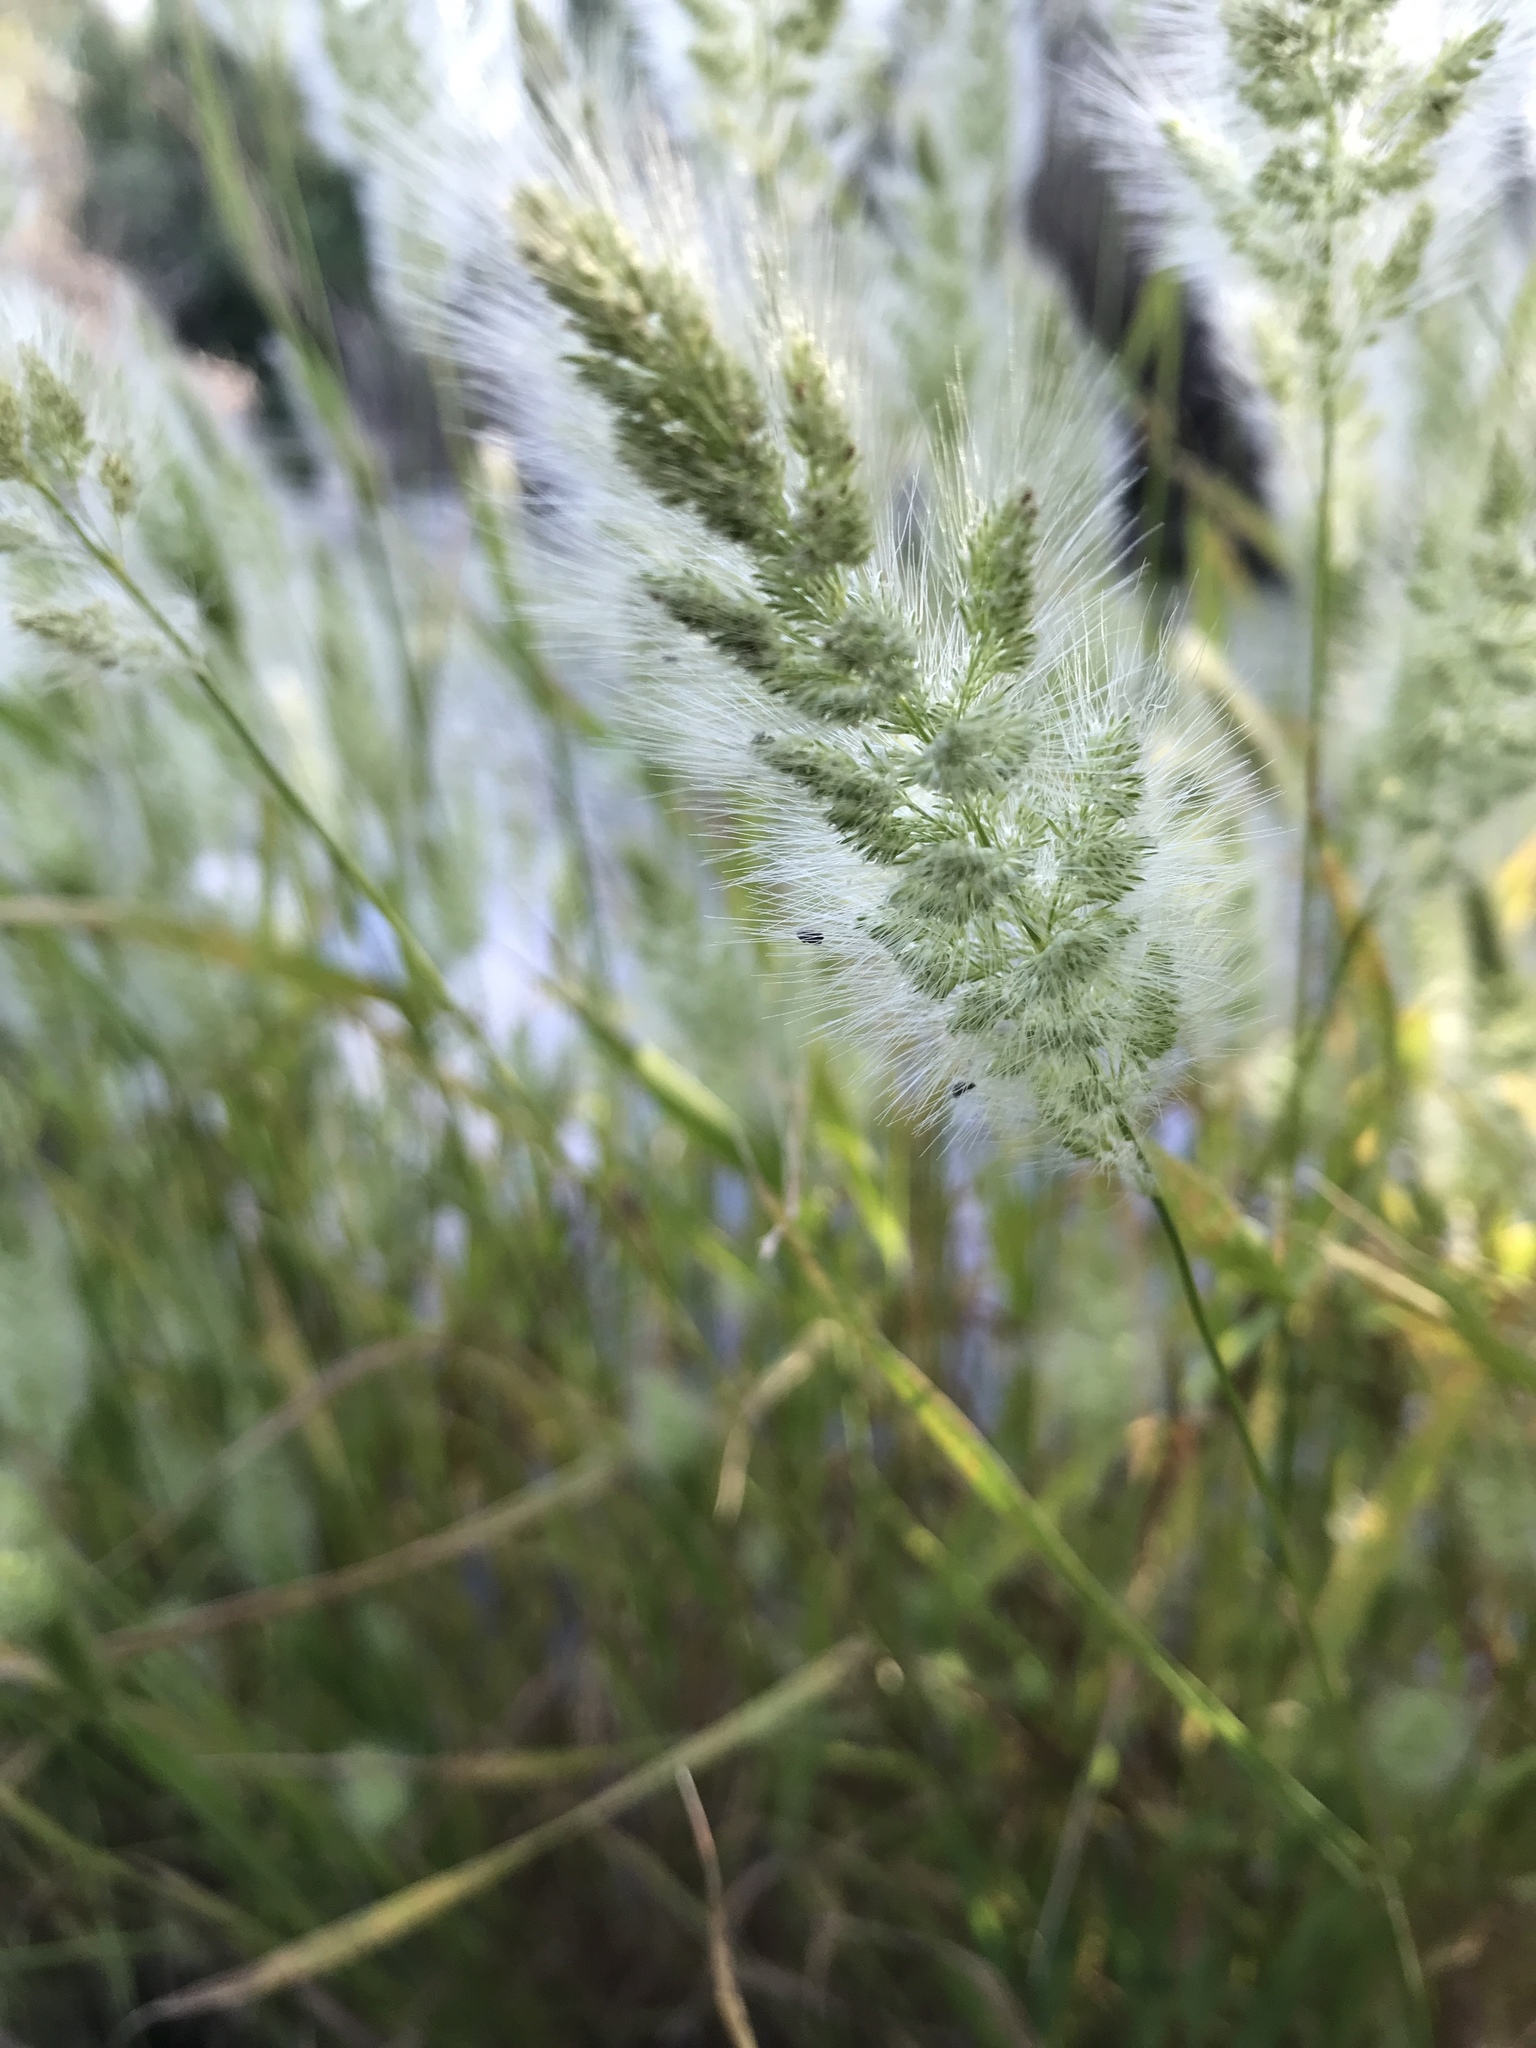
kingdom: Plantae
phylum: Tracheophyta
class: Liliopsida
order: Poales
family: Poaceae
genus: Polypogon
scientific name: Polypogon monspeliensis
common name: Annual rabbitsfoot grass
